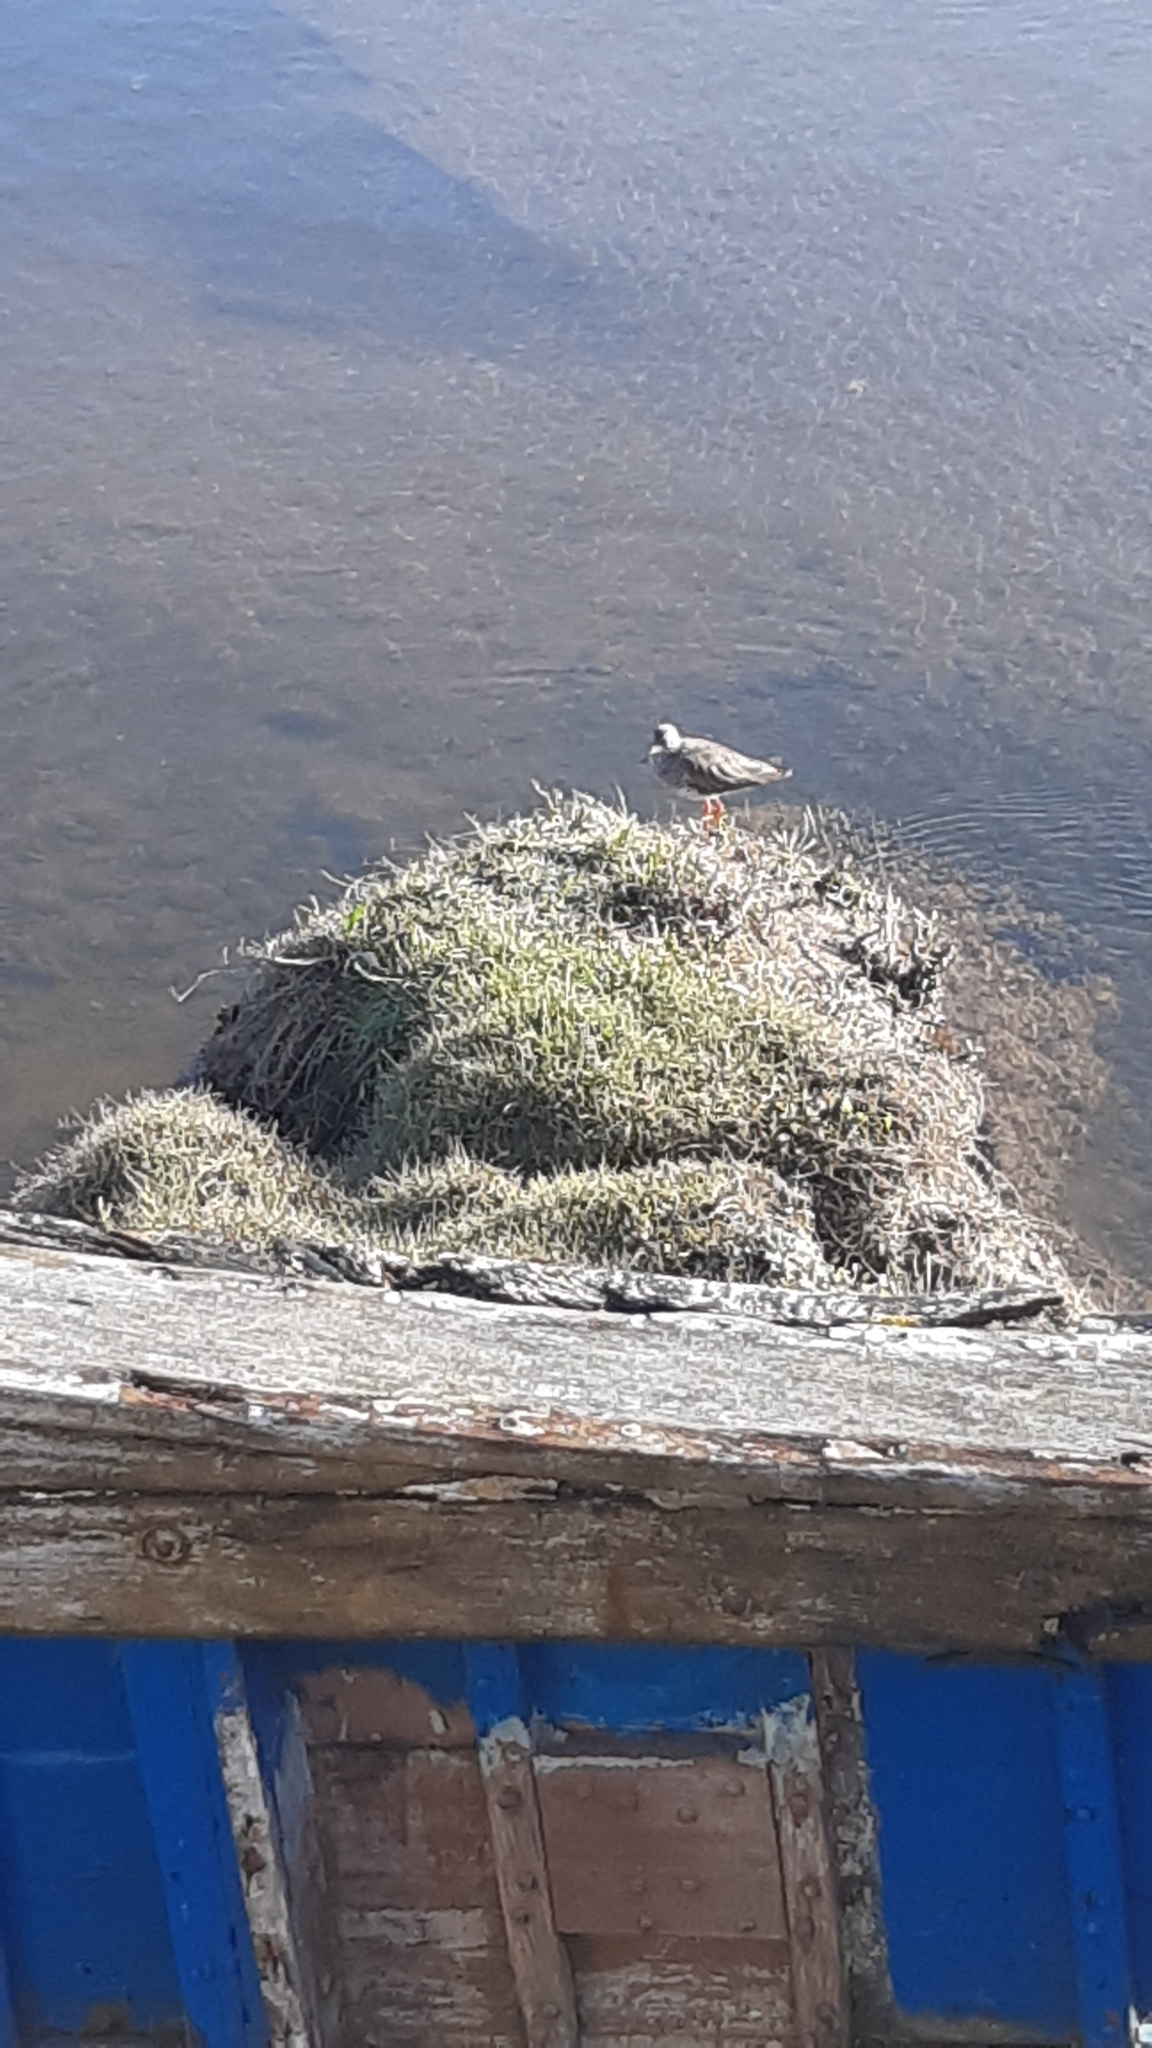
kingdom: Animalia
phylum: Chordata
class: Aves
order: Charadriiformes
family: Scolopacidae
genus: Tringa
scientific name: Tringa totanus
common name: Common redshank
